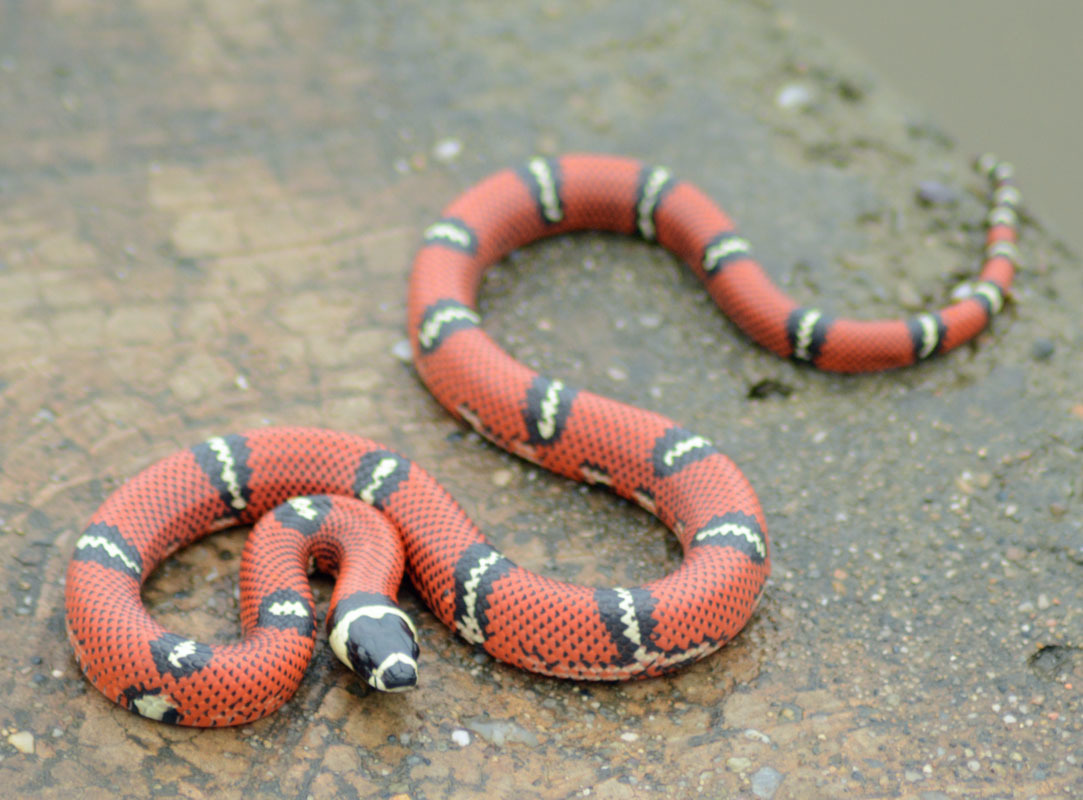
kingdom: Animalia
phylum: Chordata
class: Squamata
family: Colubridae
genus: Lampropeltis
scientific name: Lampropeltis polyzona
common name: Atlantic central american milksnake
